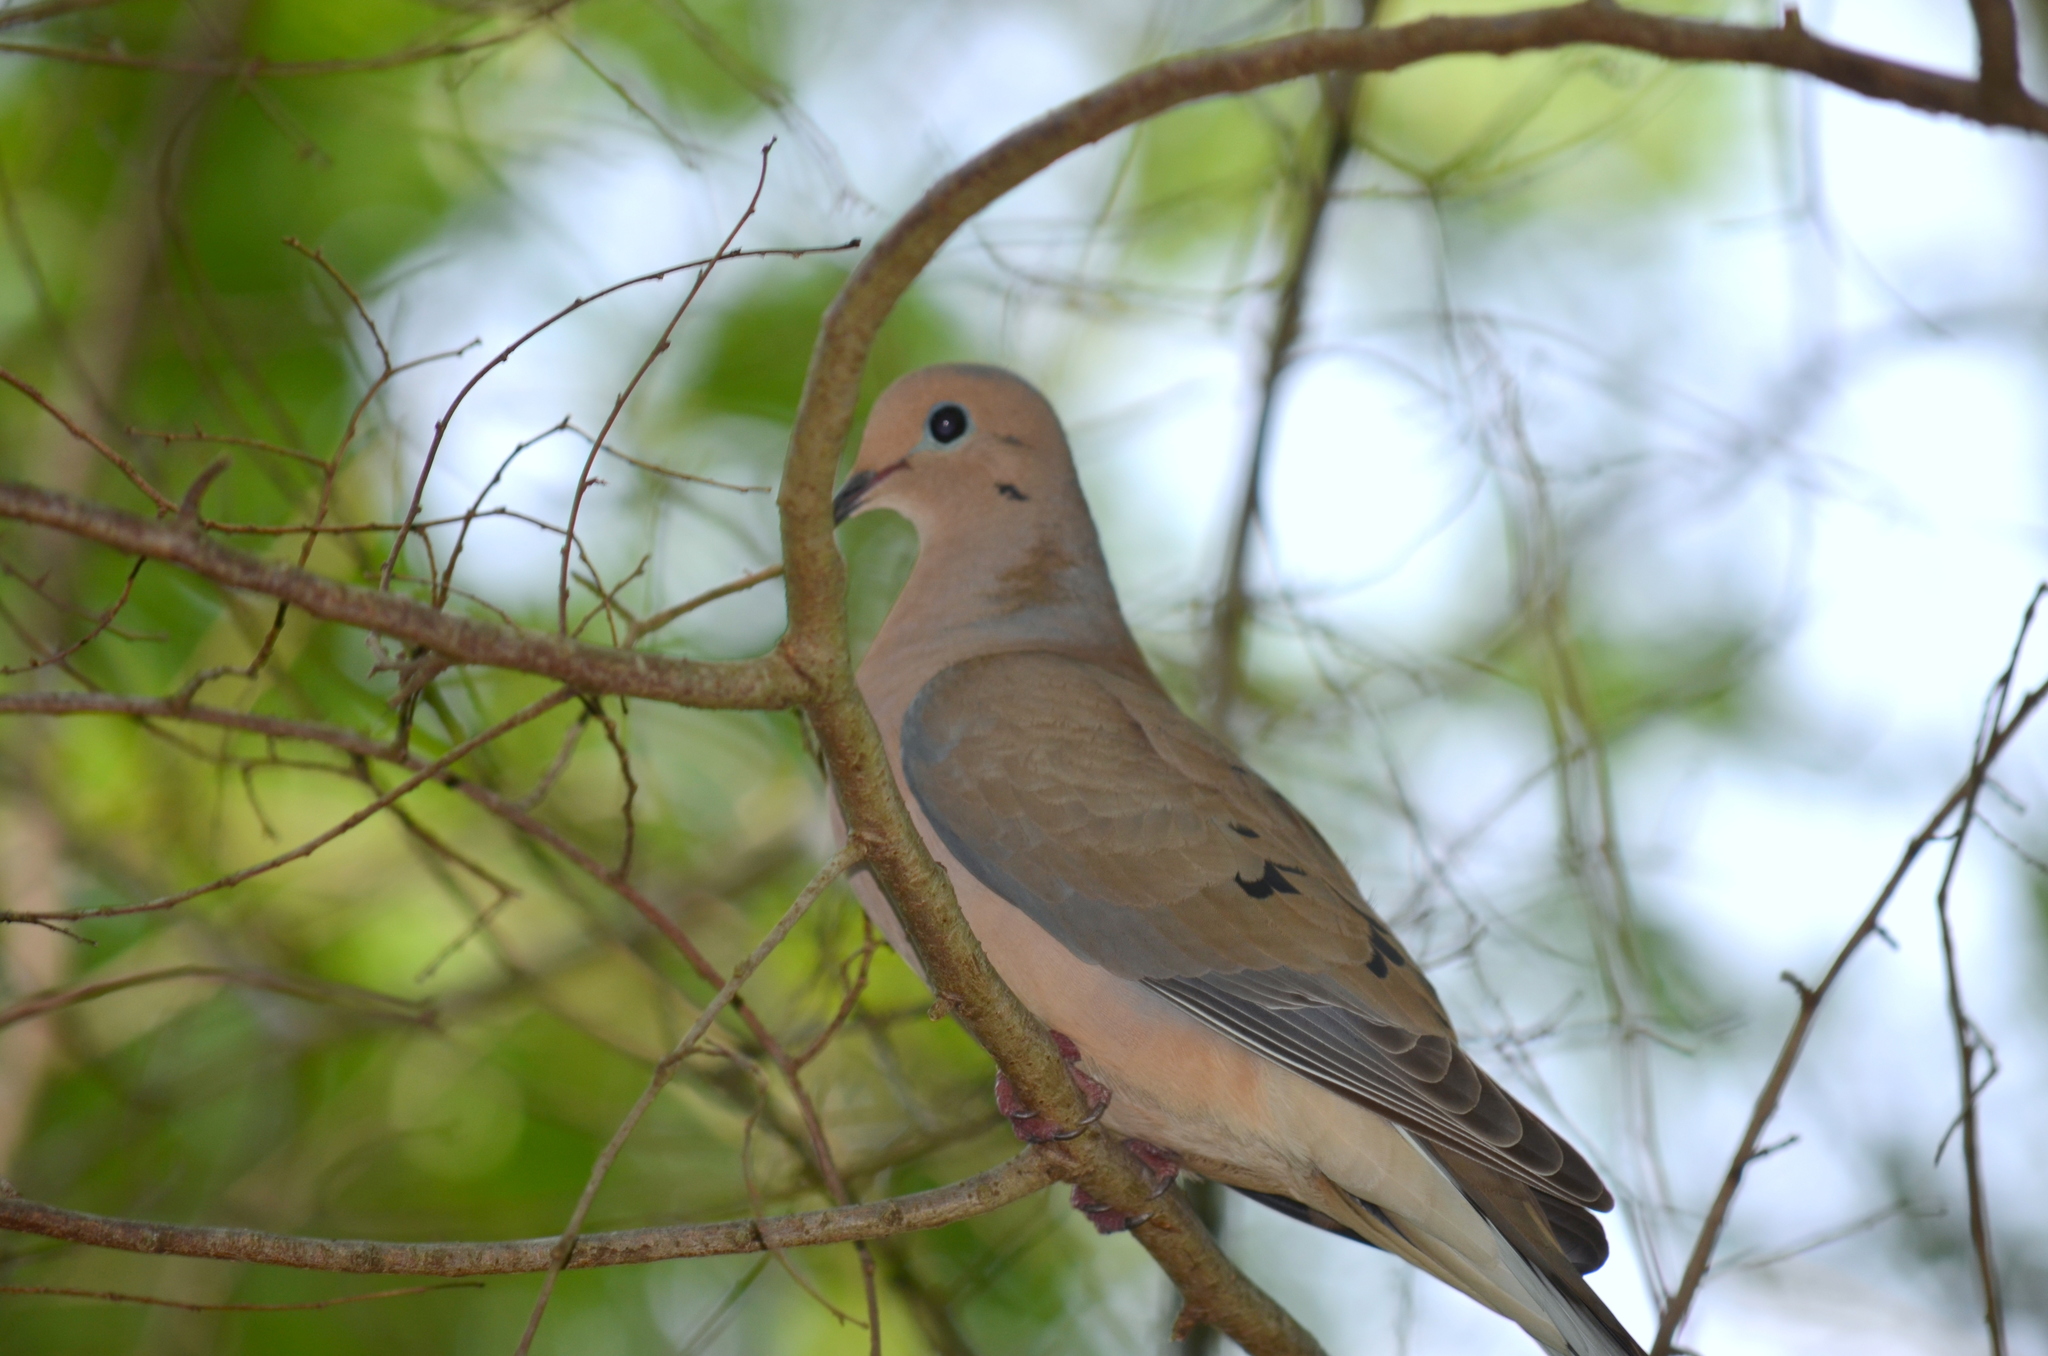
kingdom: Animalia
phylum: Chordata
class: Aves
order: Columbiformes
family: Columbidae
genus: Zenaida
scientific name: Zenaida macroura
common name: Mourning dove
